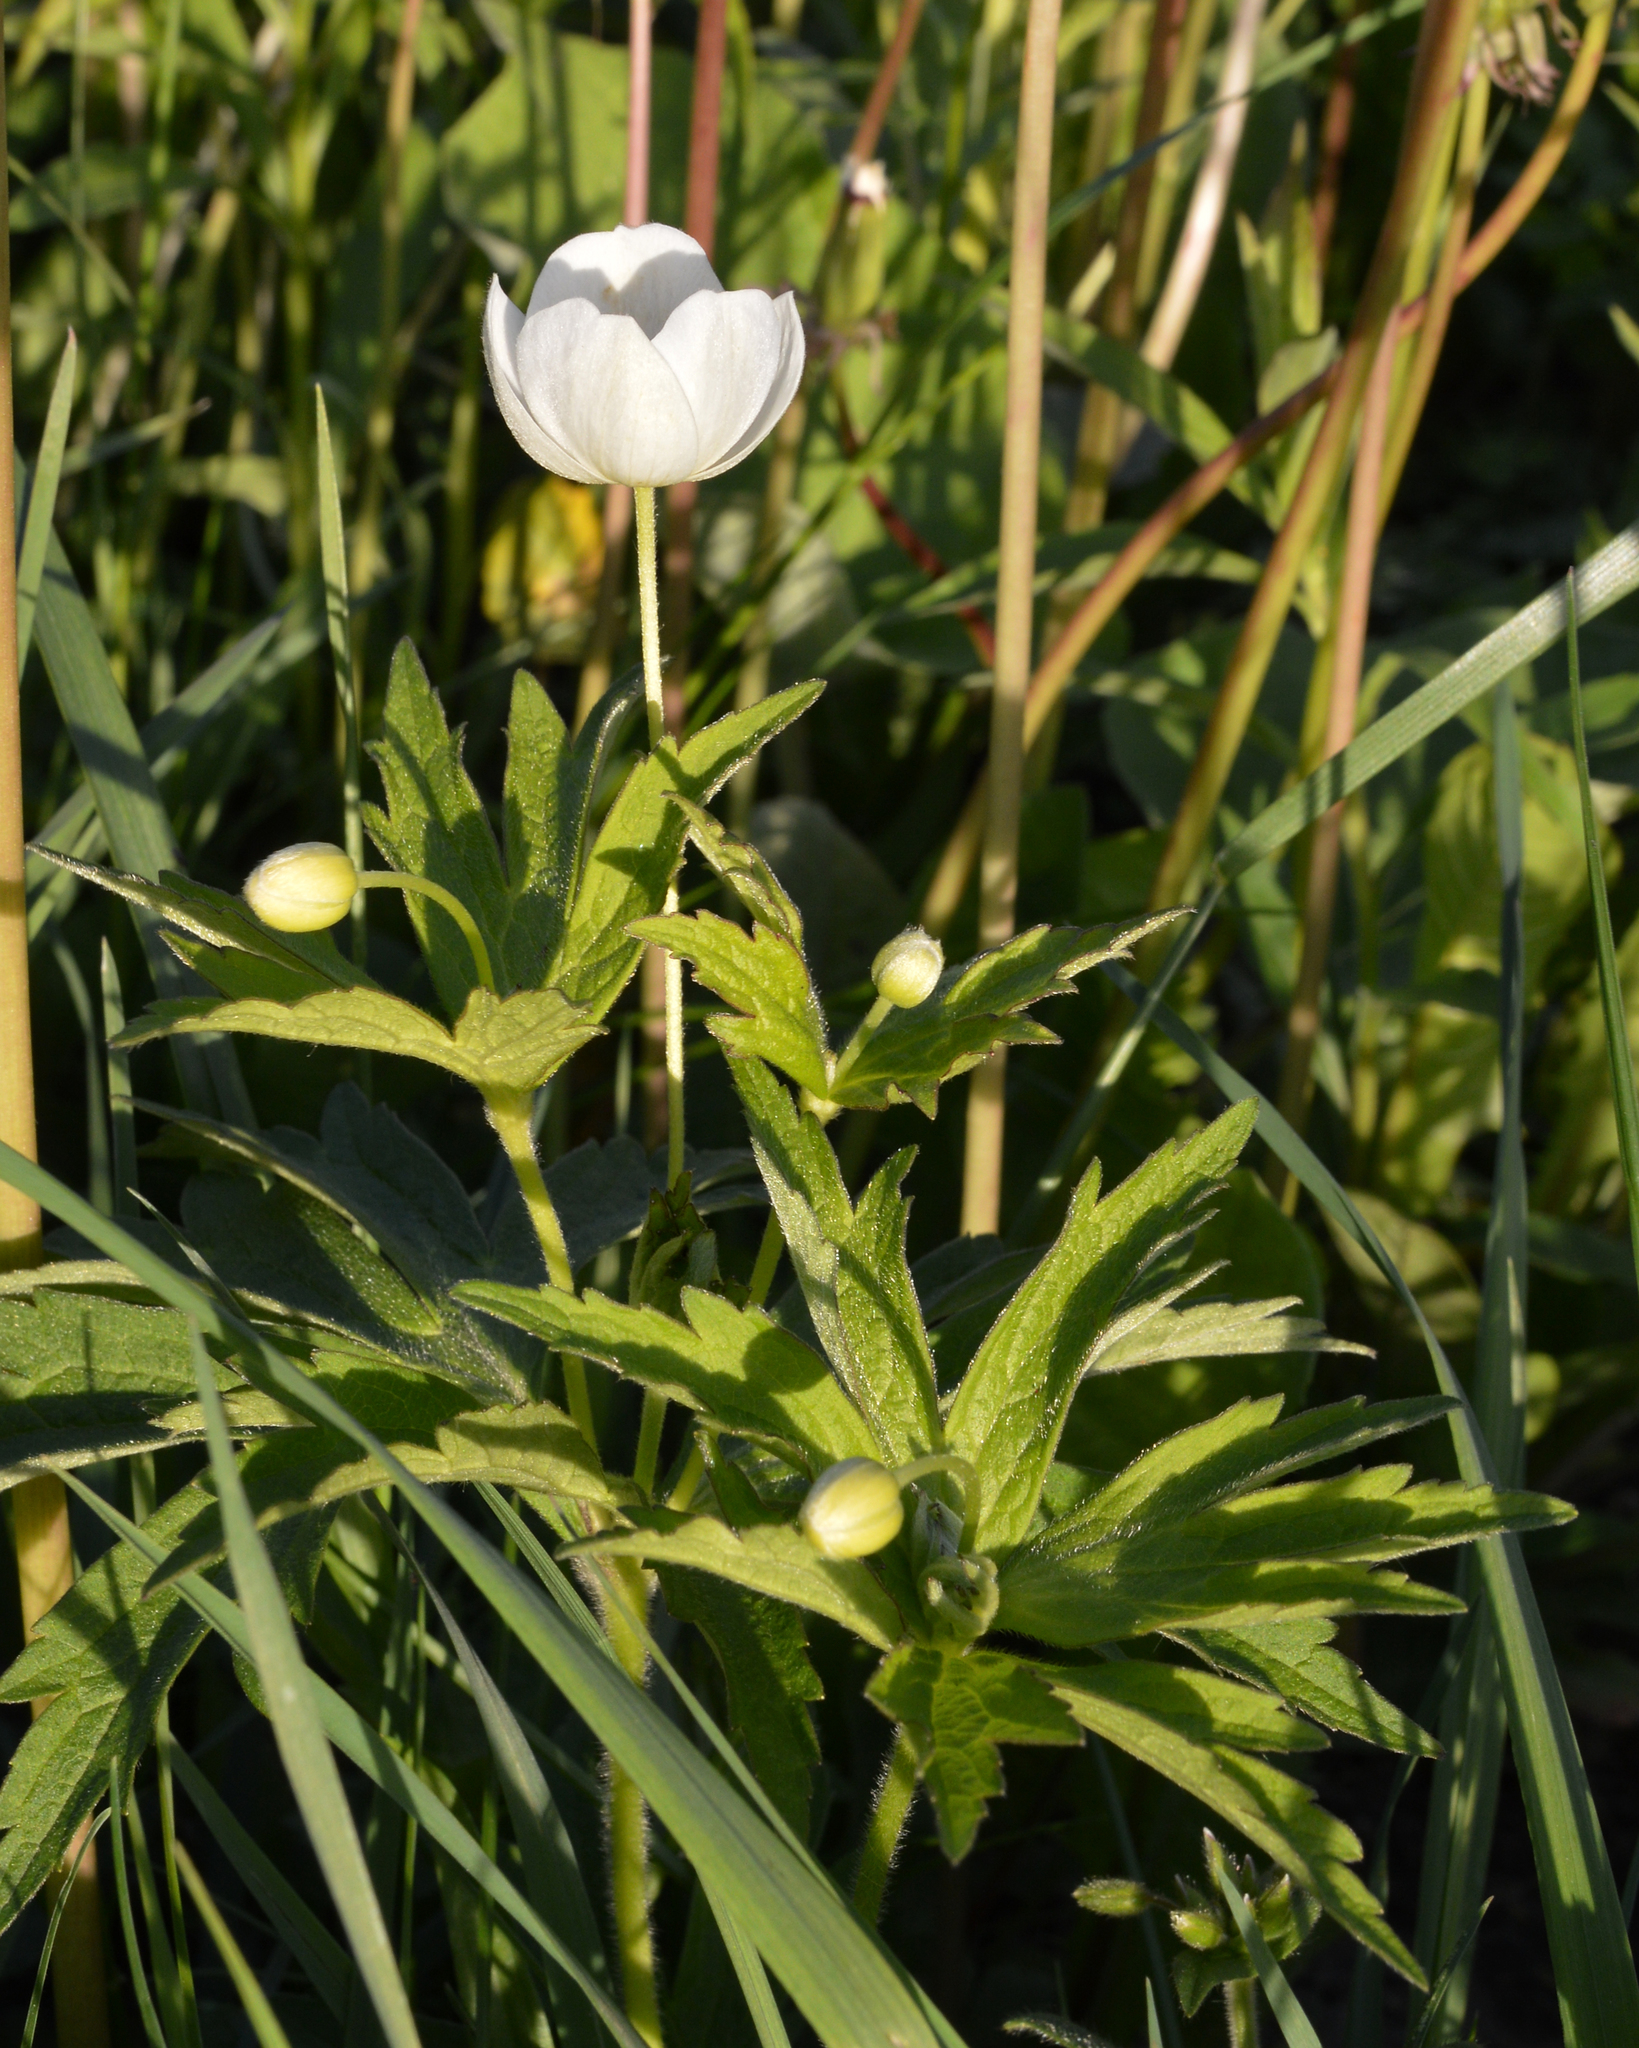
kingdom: Plantae
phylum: Tracheophyta
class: Magnoliopsida
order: Ranunculales
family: Ranunculaceae
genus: Anemonastrum
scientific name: Anemonastrum canadense
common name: Canada anemone
